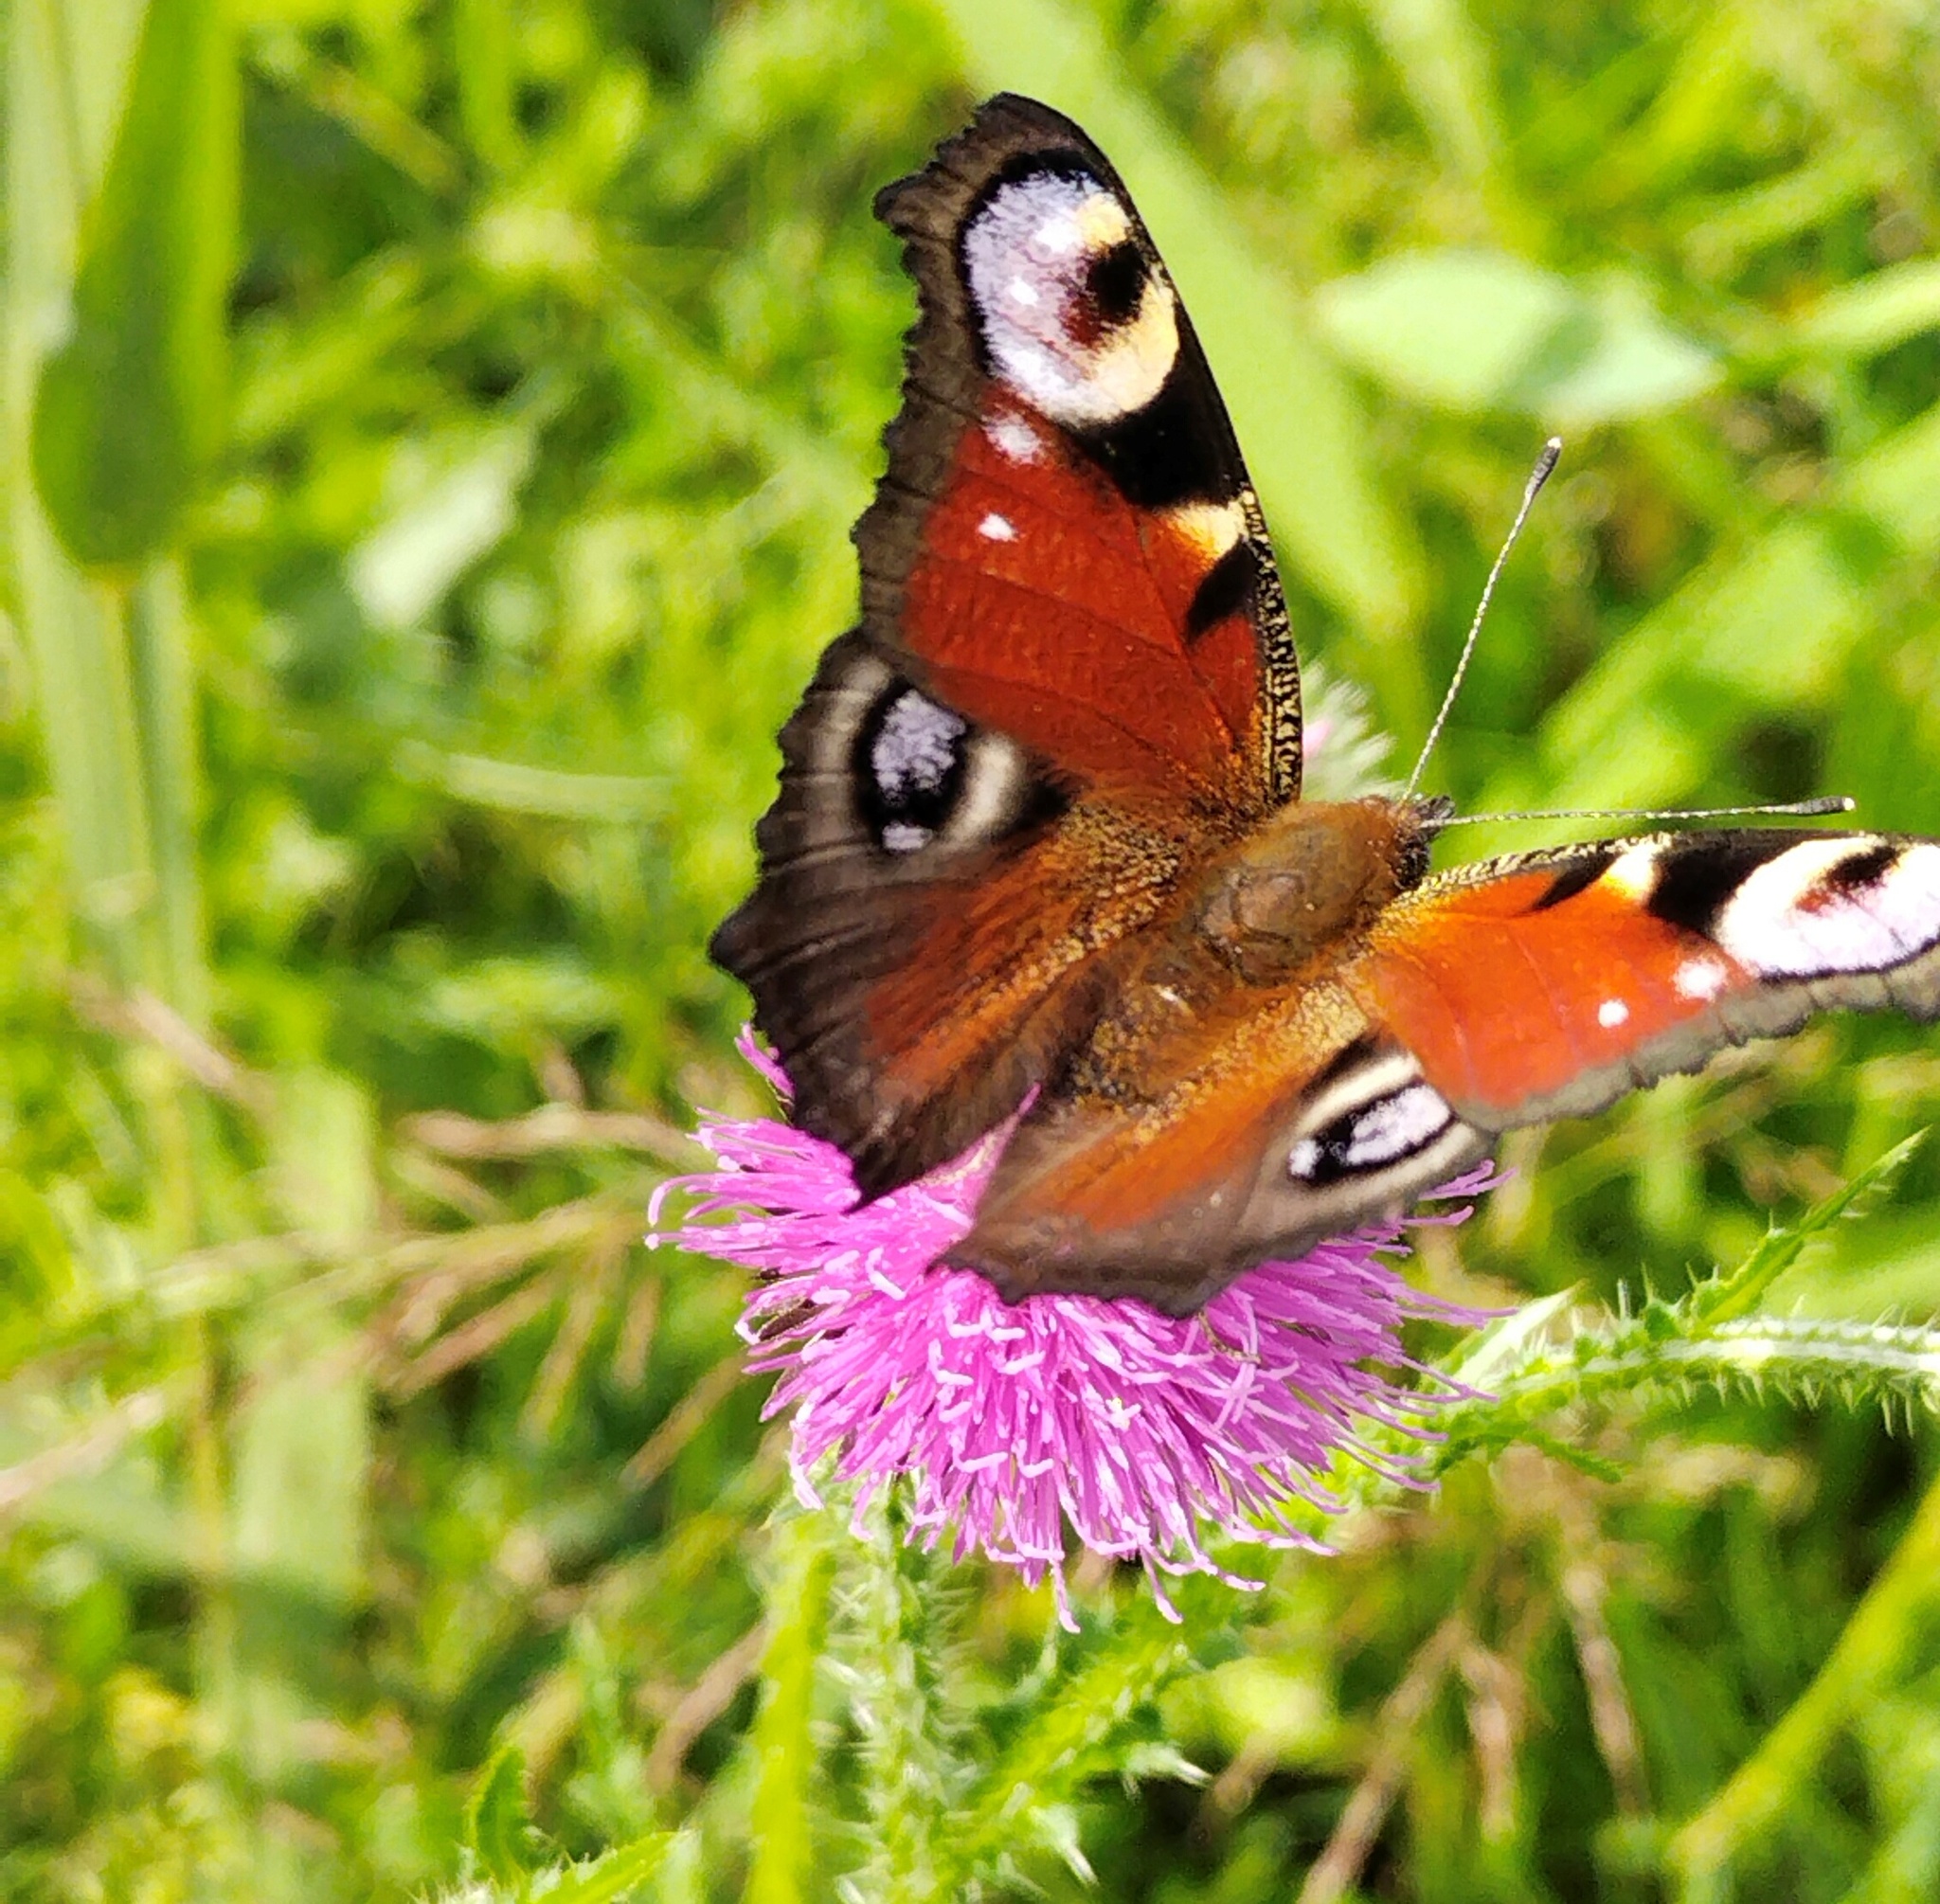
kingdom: Animalia
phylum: Arthropoda
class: Insecta
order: Lepidoptera
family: Nymphalidae
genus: Aglais
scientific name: Aglais io
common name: Peacock
